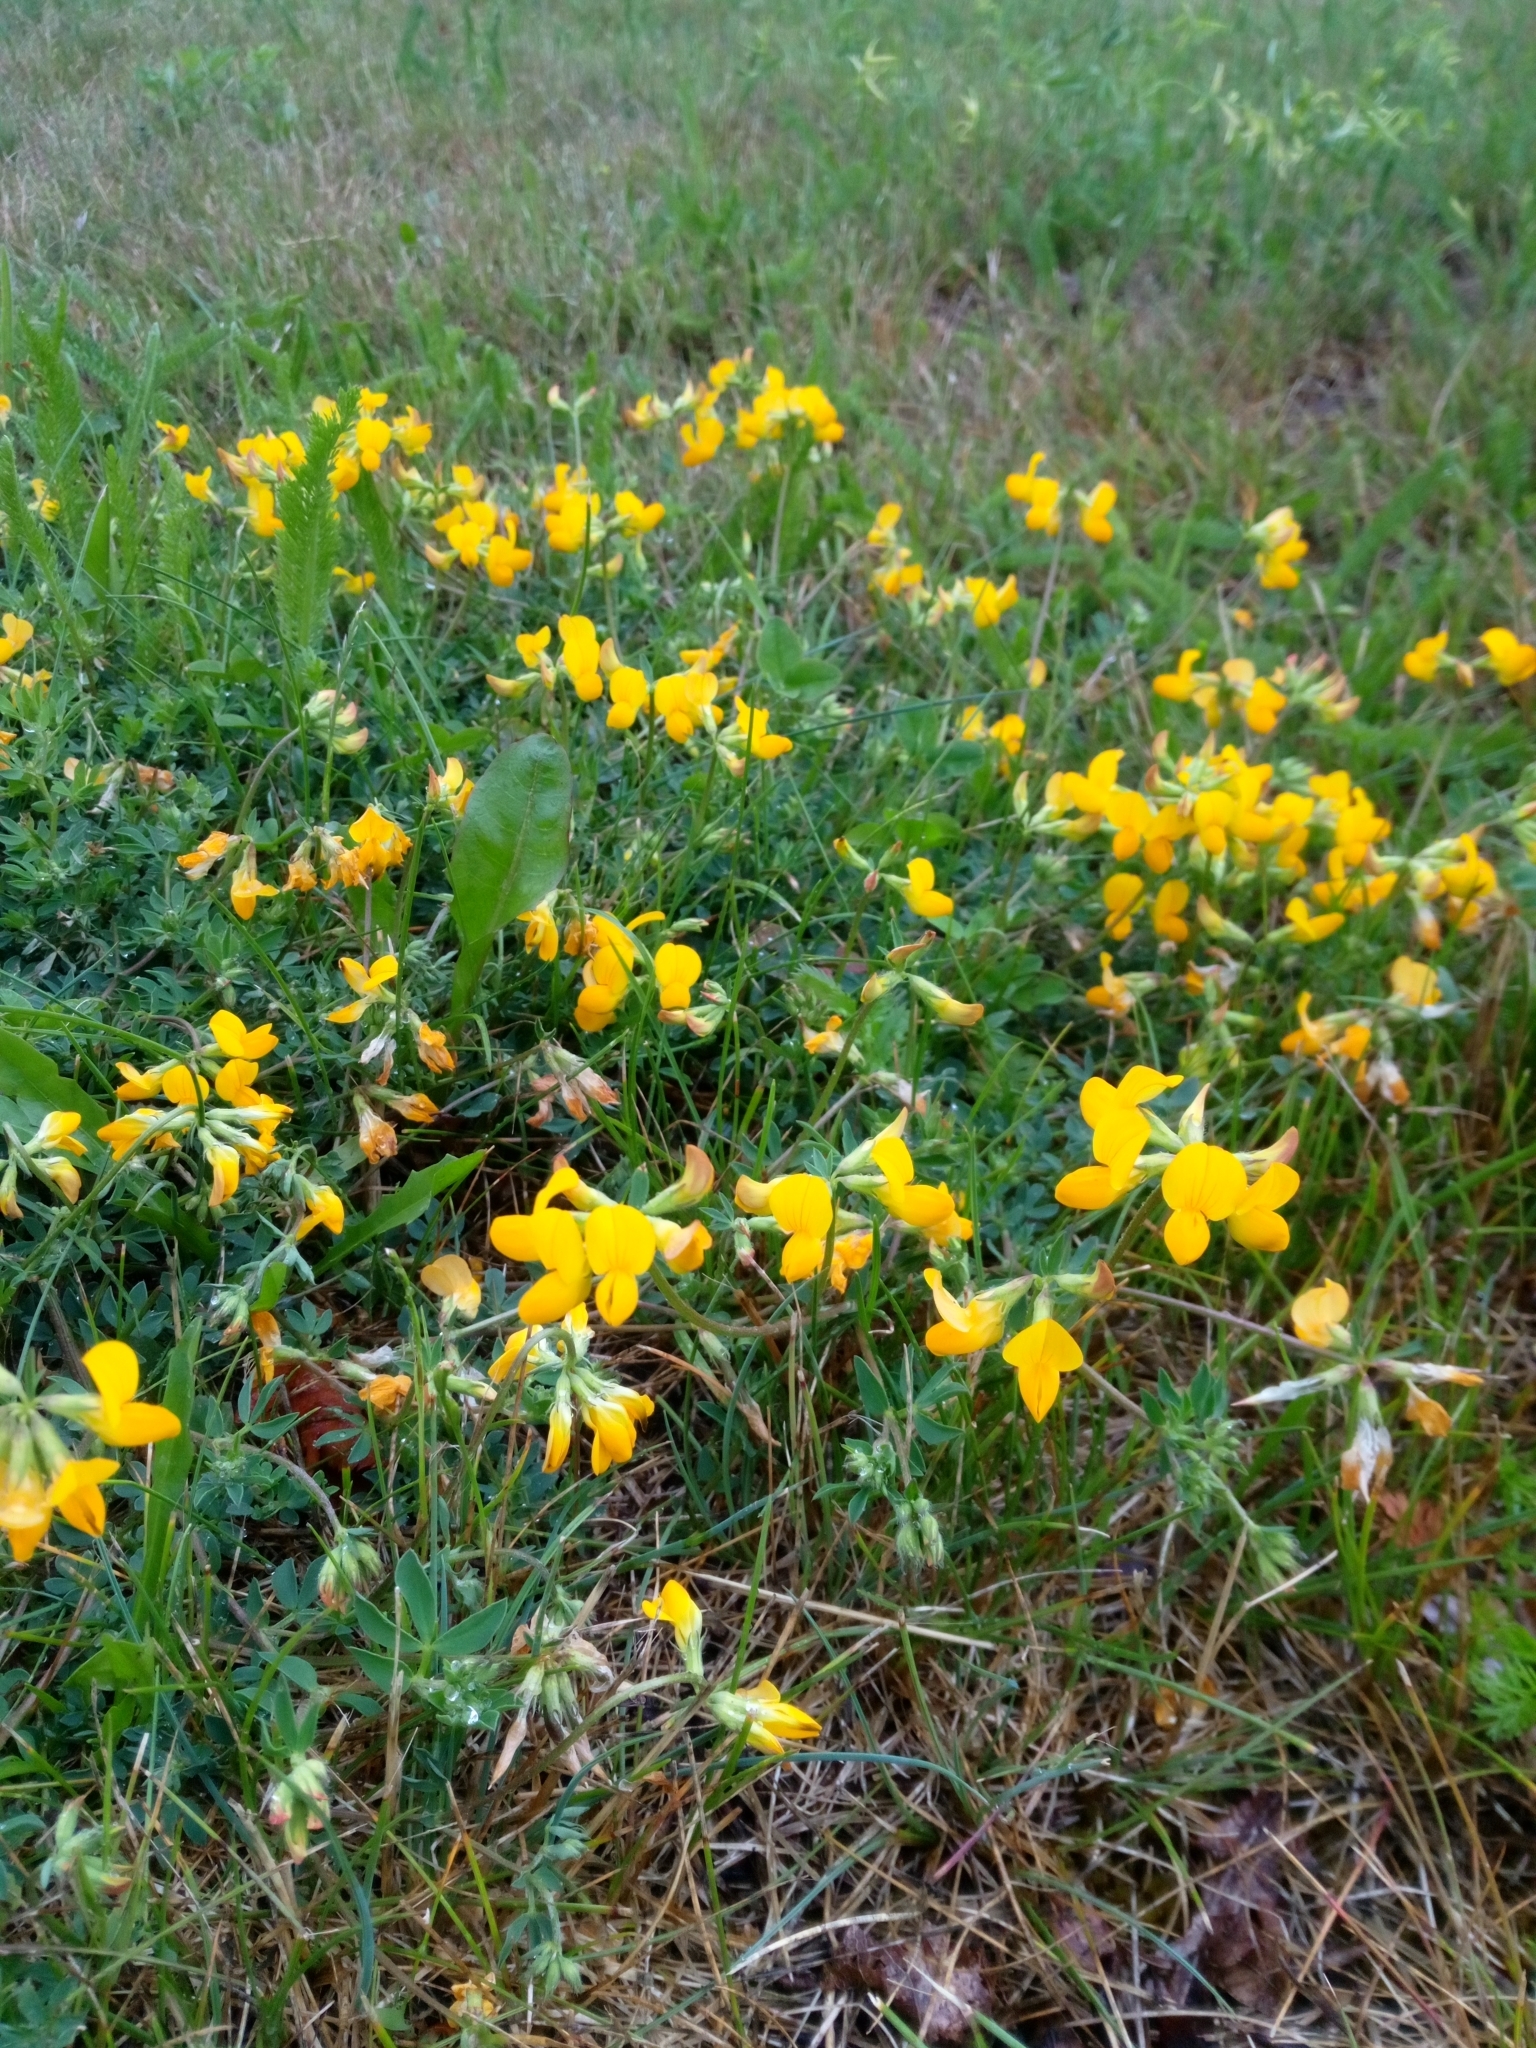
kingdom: Plantae
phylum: Tracheophyta
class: Magnoliopsida
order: Fabales
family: Fabaceae
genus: Lotus
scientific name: Lotus corniculatus
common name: Common bird's-foot-trefoil
